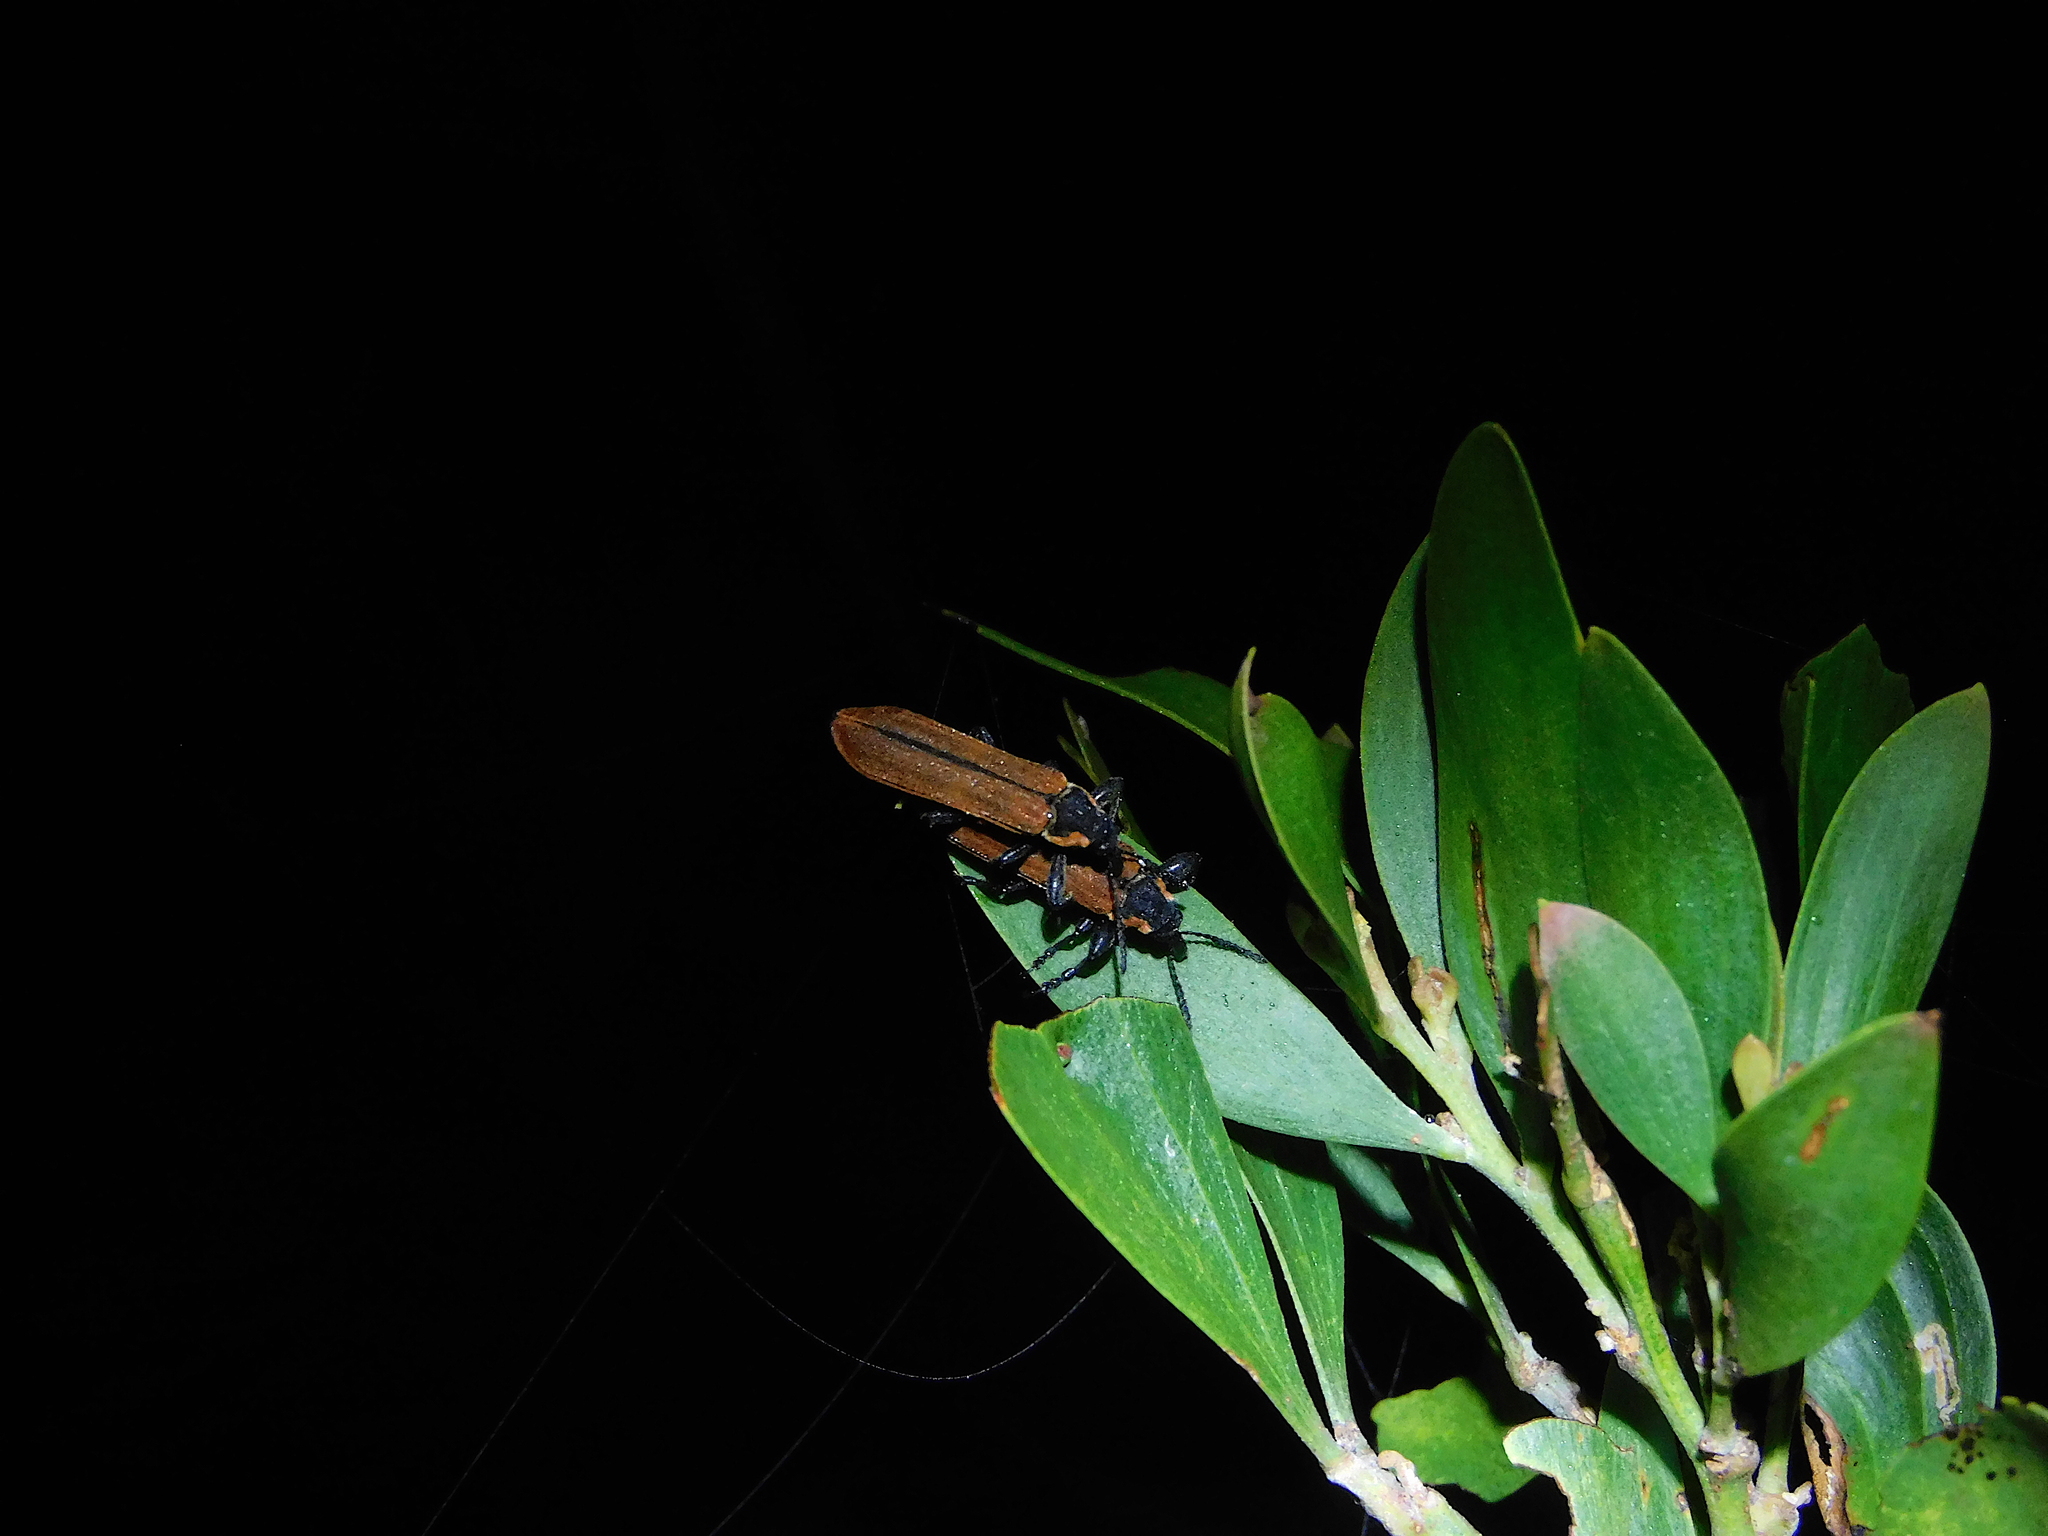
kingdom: Animalia
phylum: Arthropoda
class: Insecta
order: Coleoptera
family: Belidae
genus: Rhinotia
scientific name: Rhinotia haemoptera
